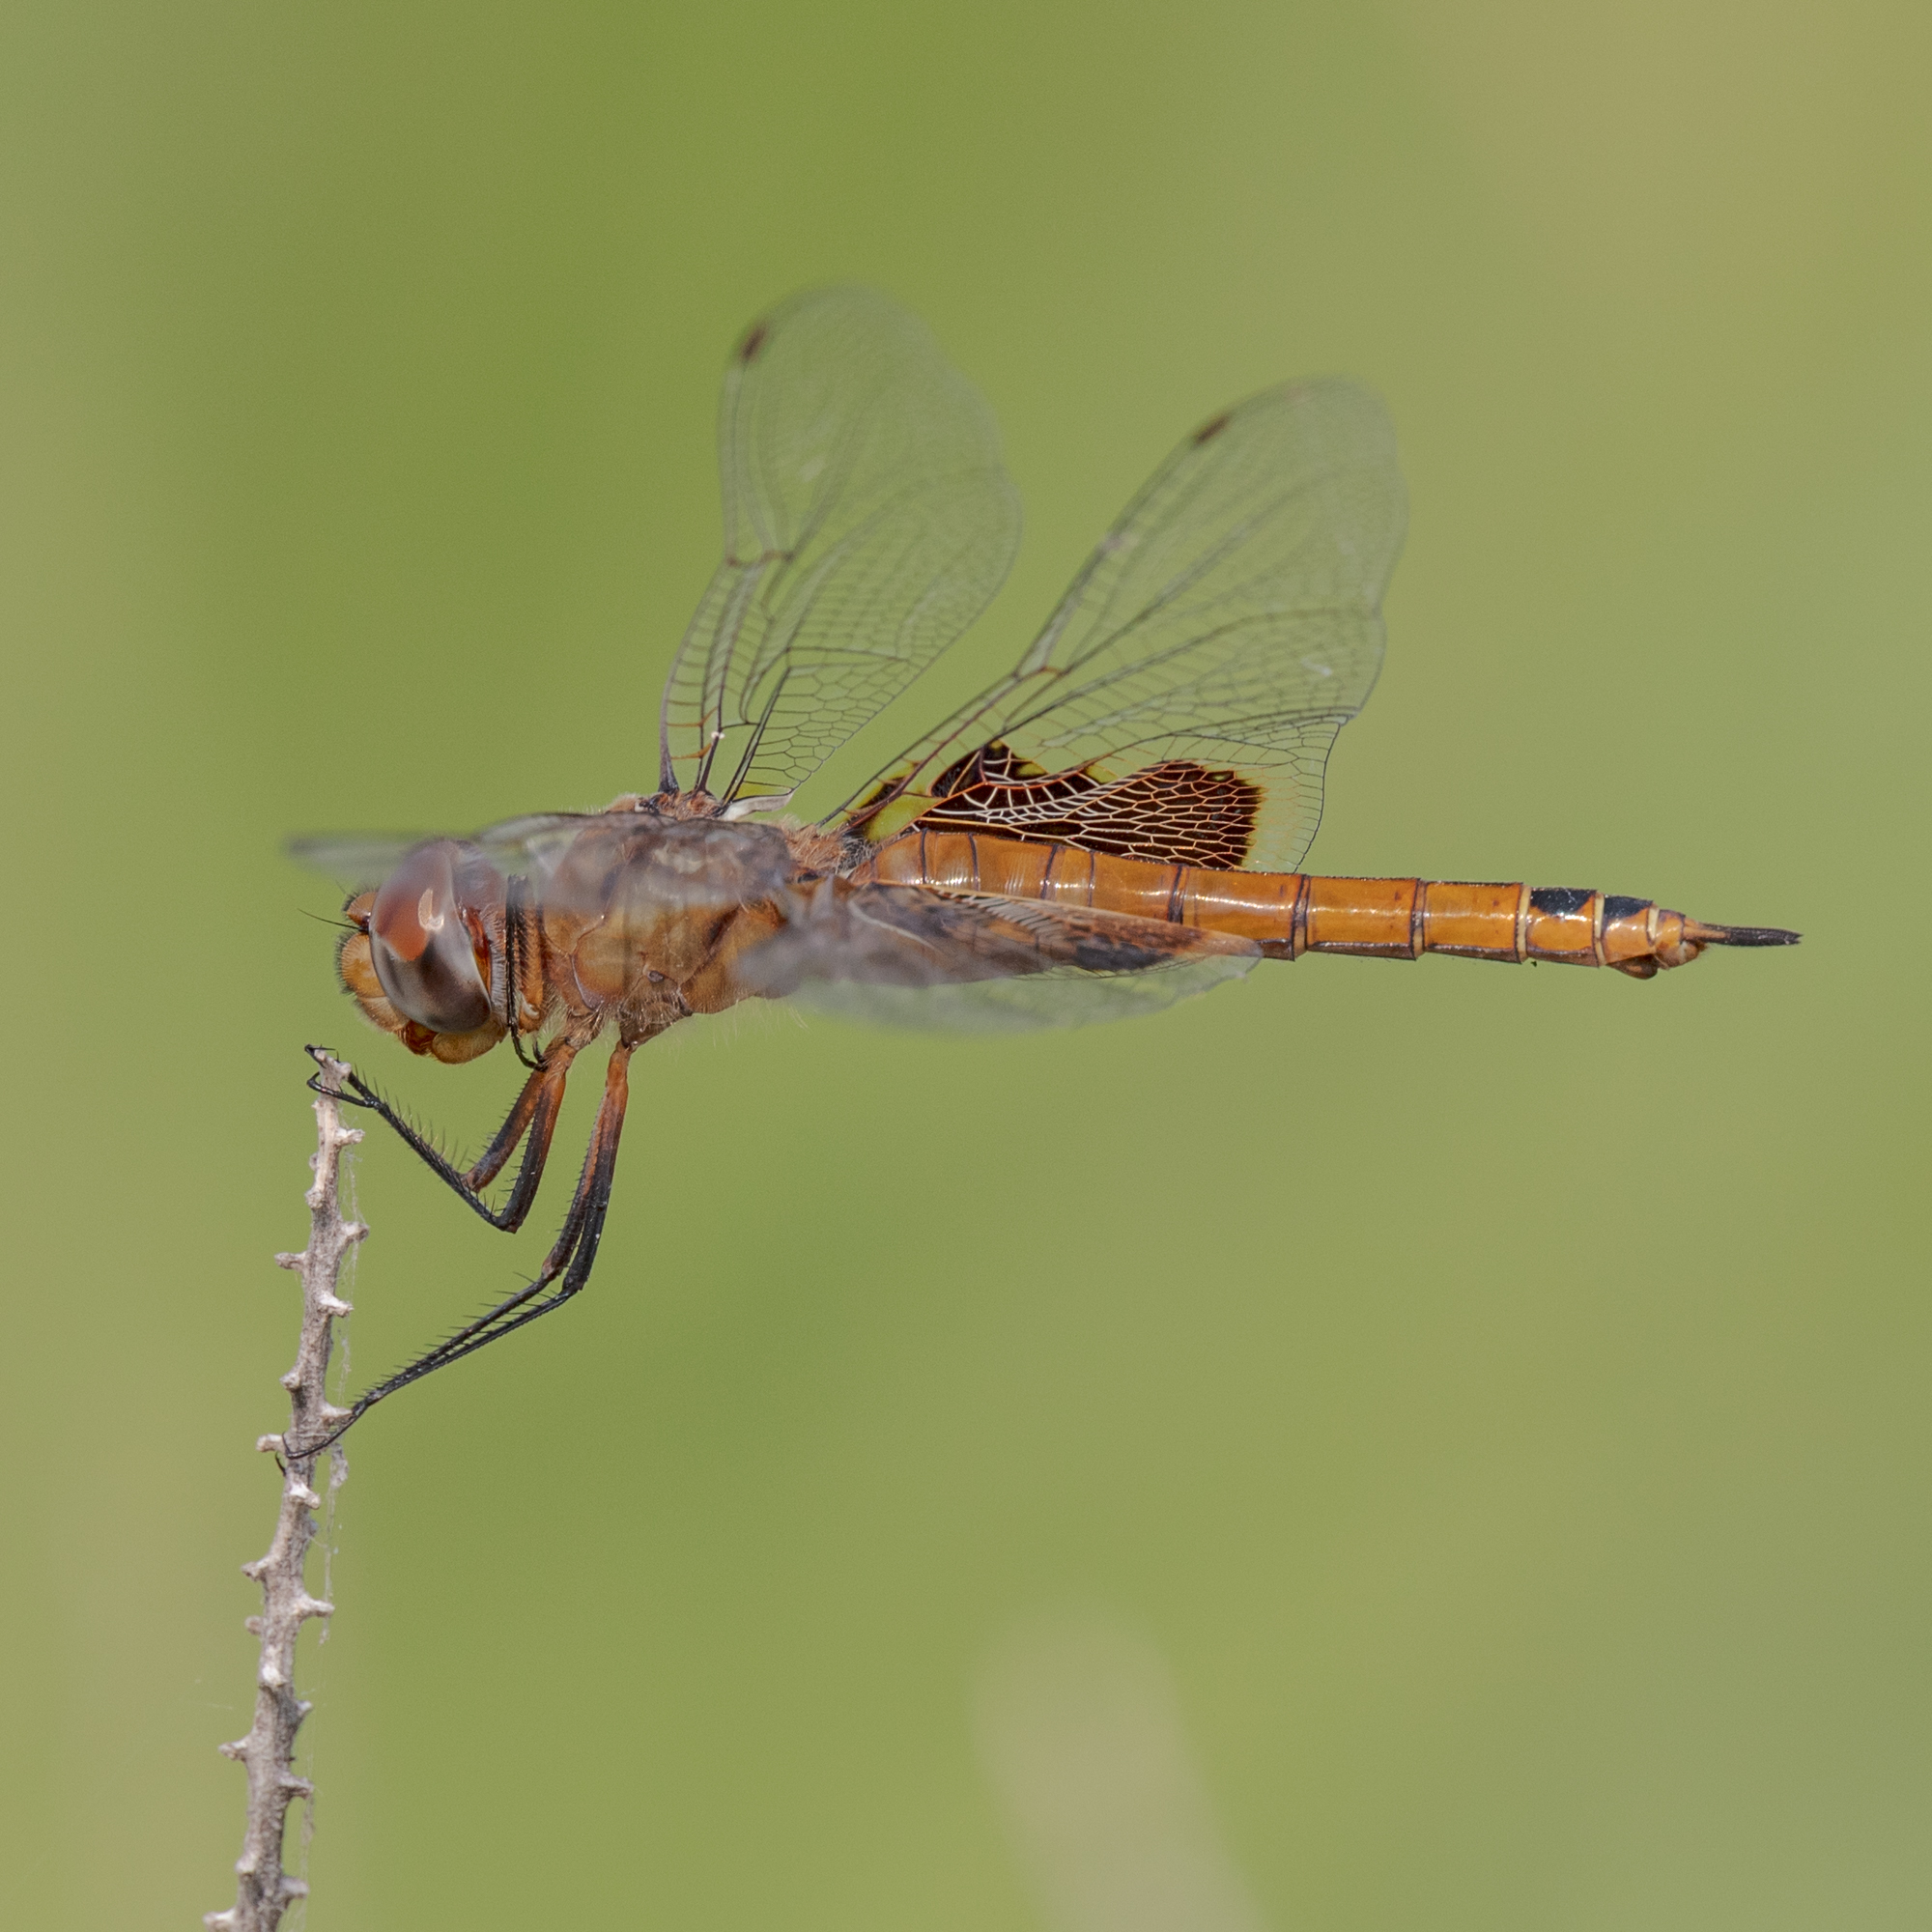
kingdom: Animalia
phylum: Arthropoda
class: Insecta
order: Odonata
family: Libellulidae
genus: Tramea
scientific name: Tramea onusta
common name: Red saddlebags
